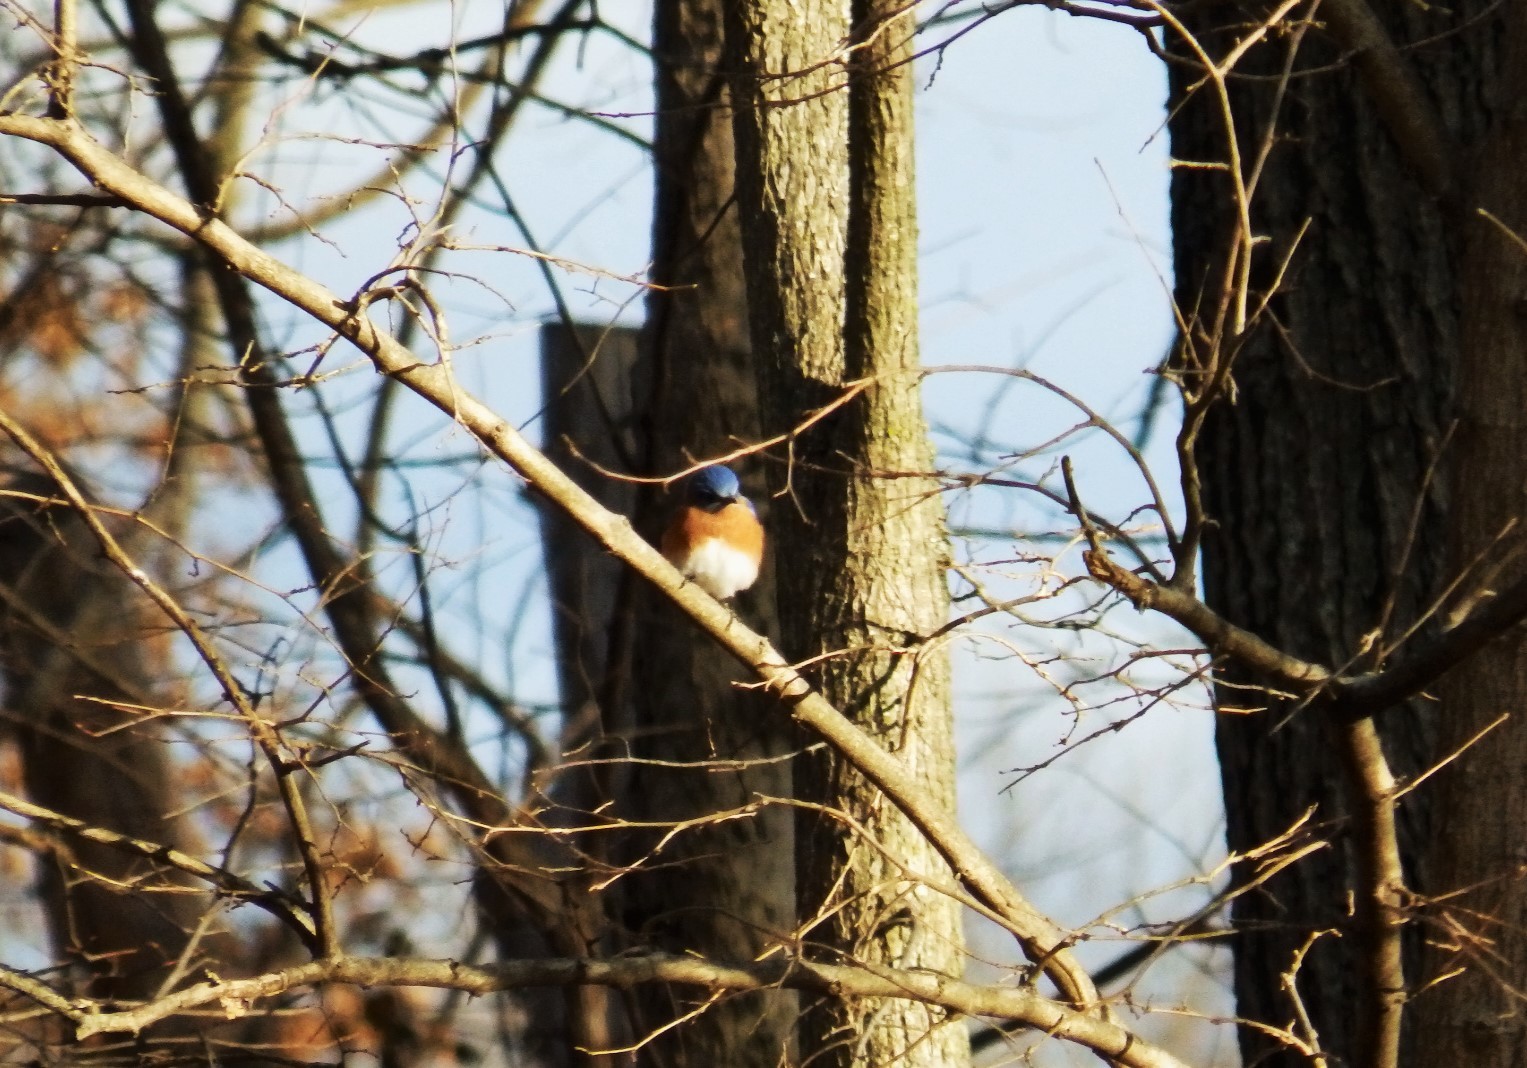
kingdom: Animalia
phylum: Chordata
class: Aves
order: Passeriformes
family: Turdidae
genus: Sialia
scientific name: Sialia sialis
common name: Eastern bluebird
